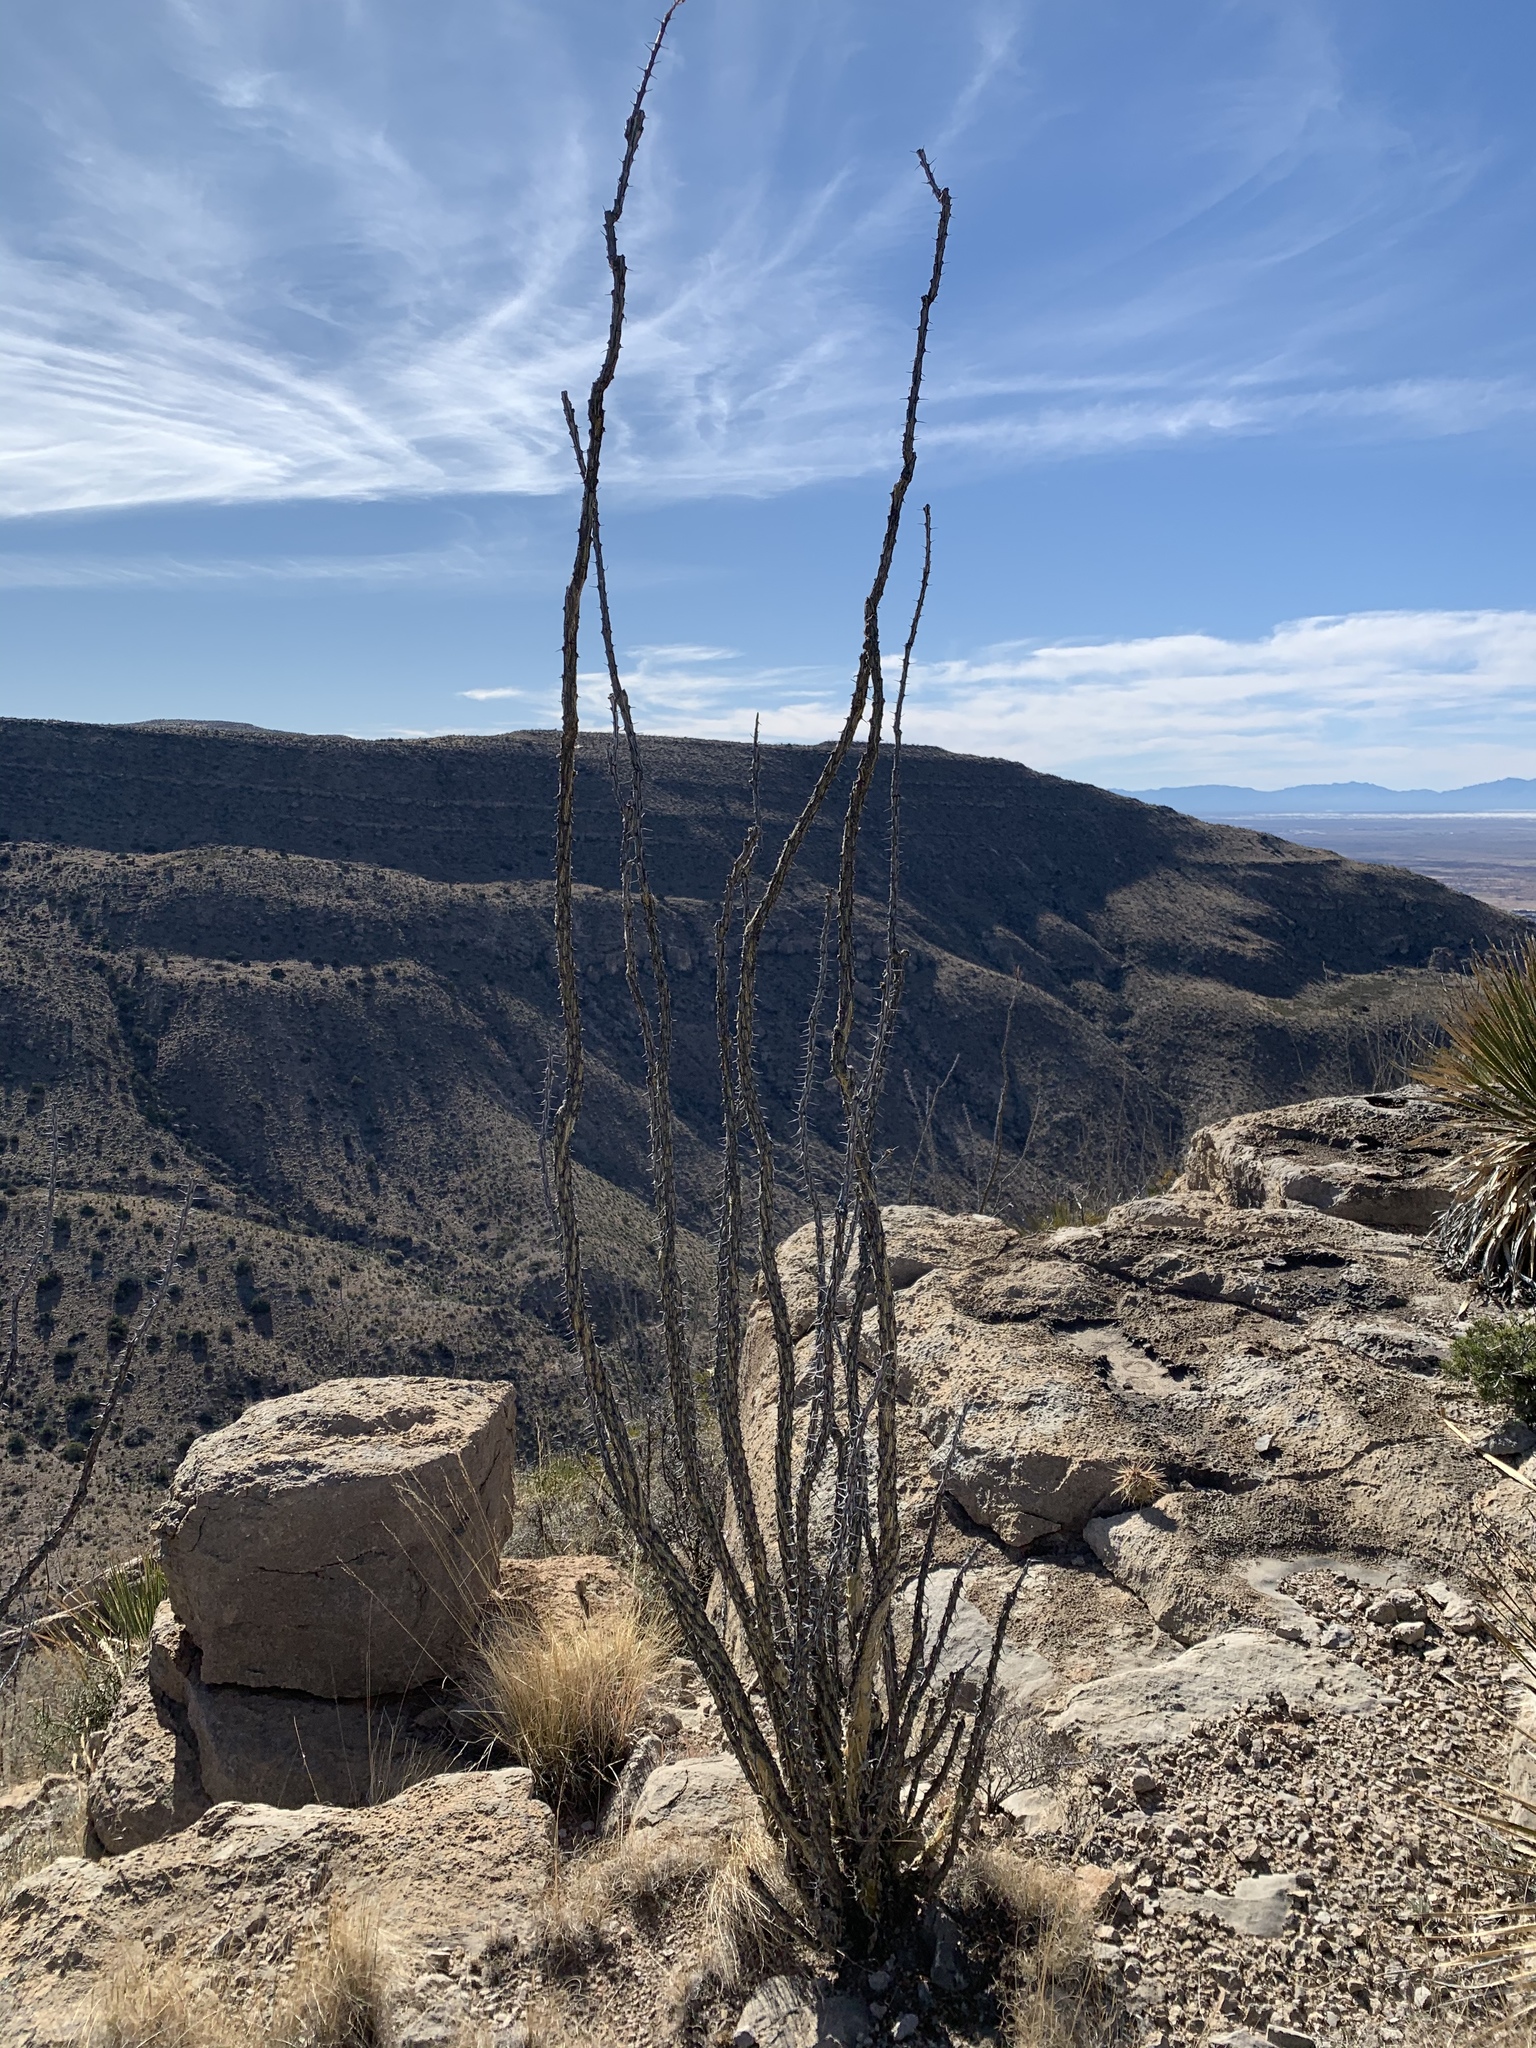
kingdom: Plantae
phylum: Tracheophyta
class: Magnoliopsida
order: Ericales
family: Fouquieriaceae
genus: Fouquieria
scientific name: Fouquieria splendens
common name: Vine-cactus
